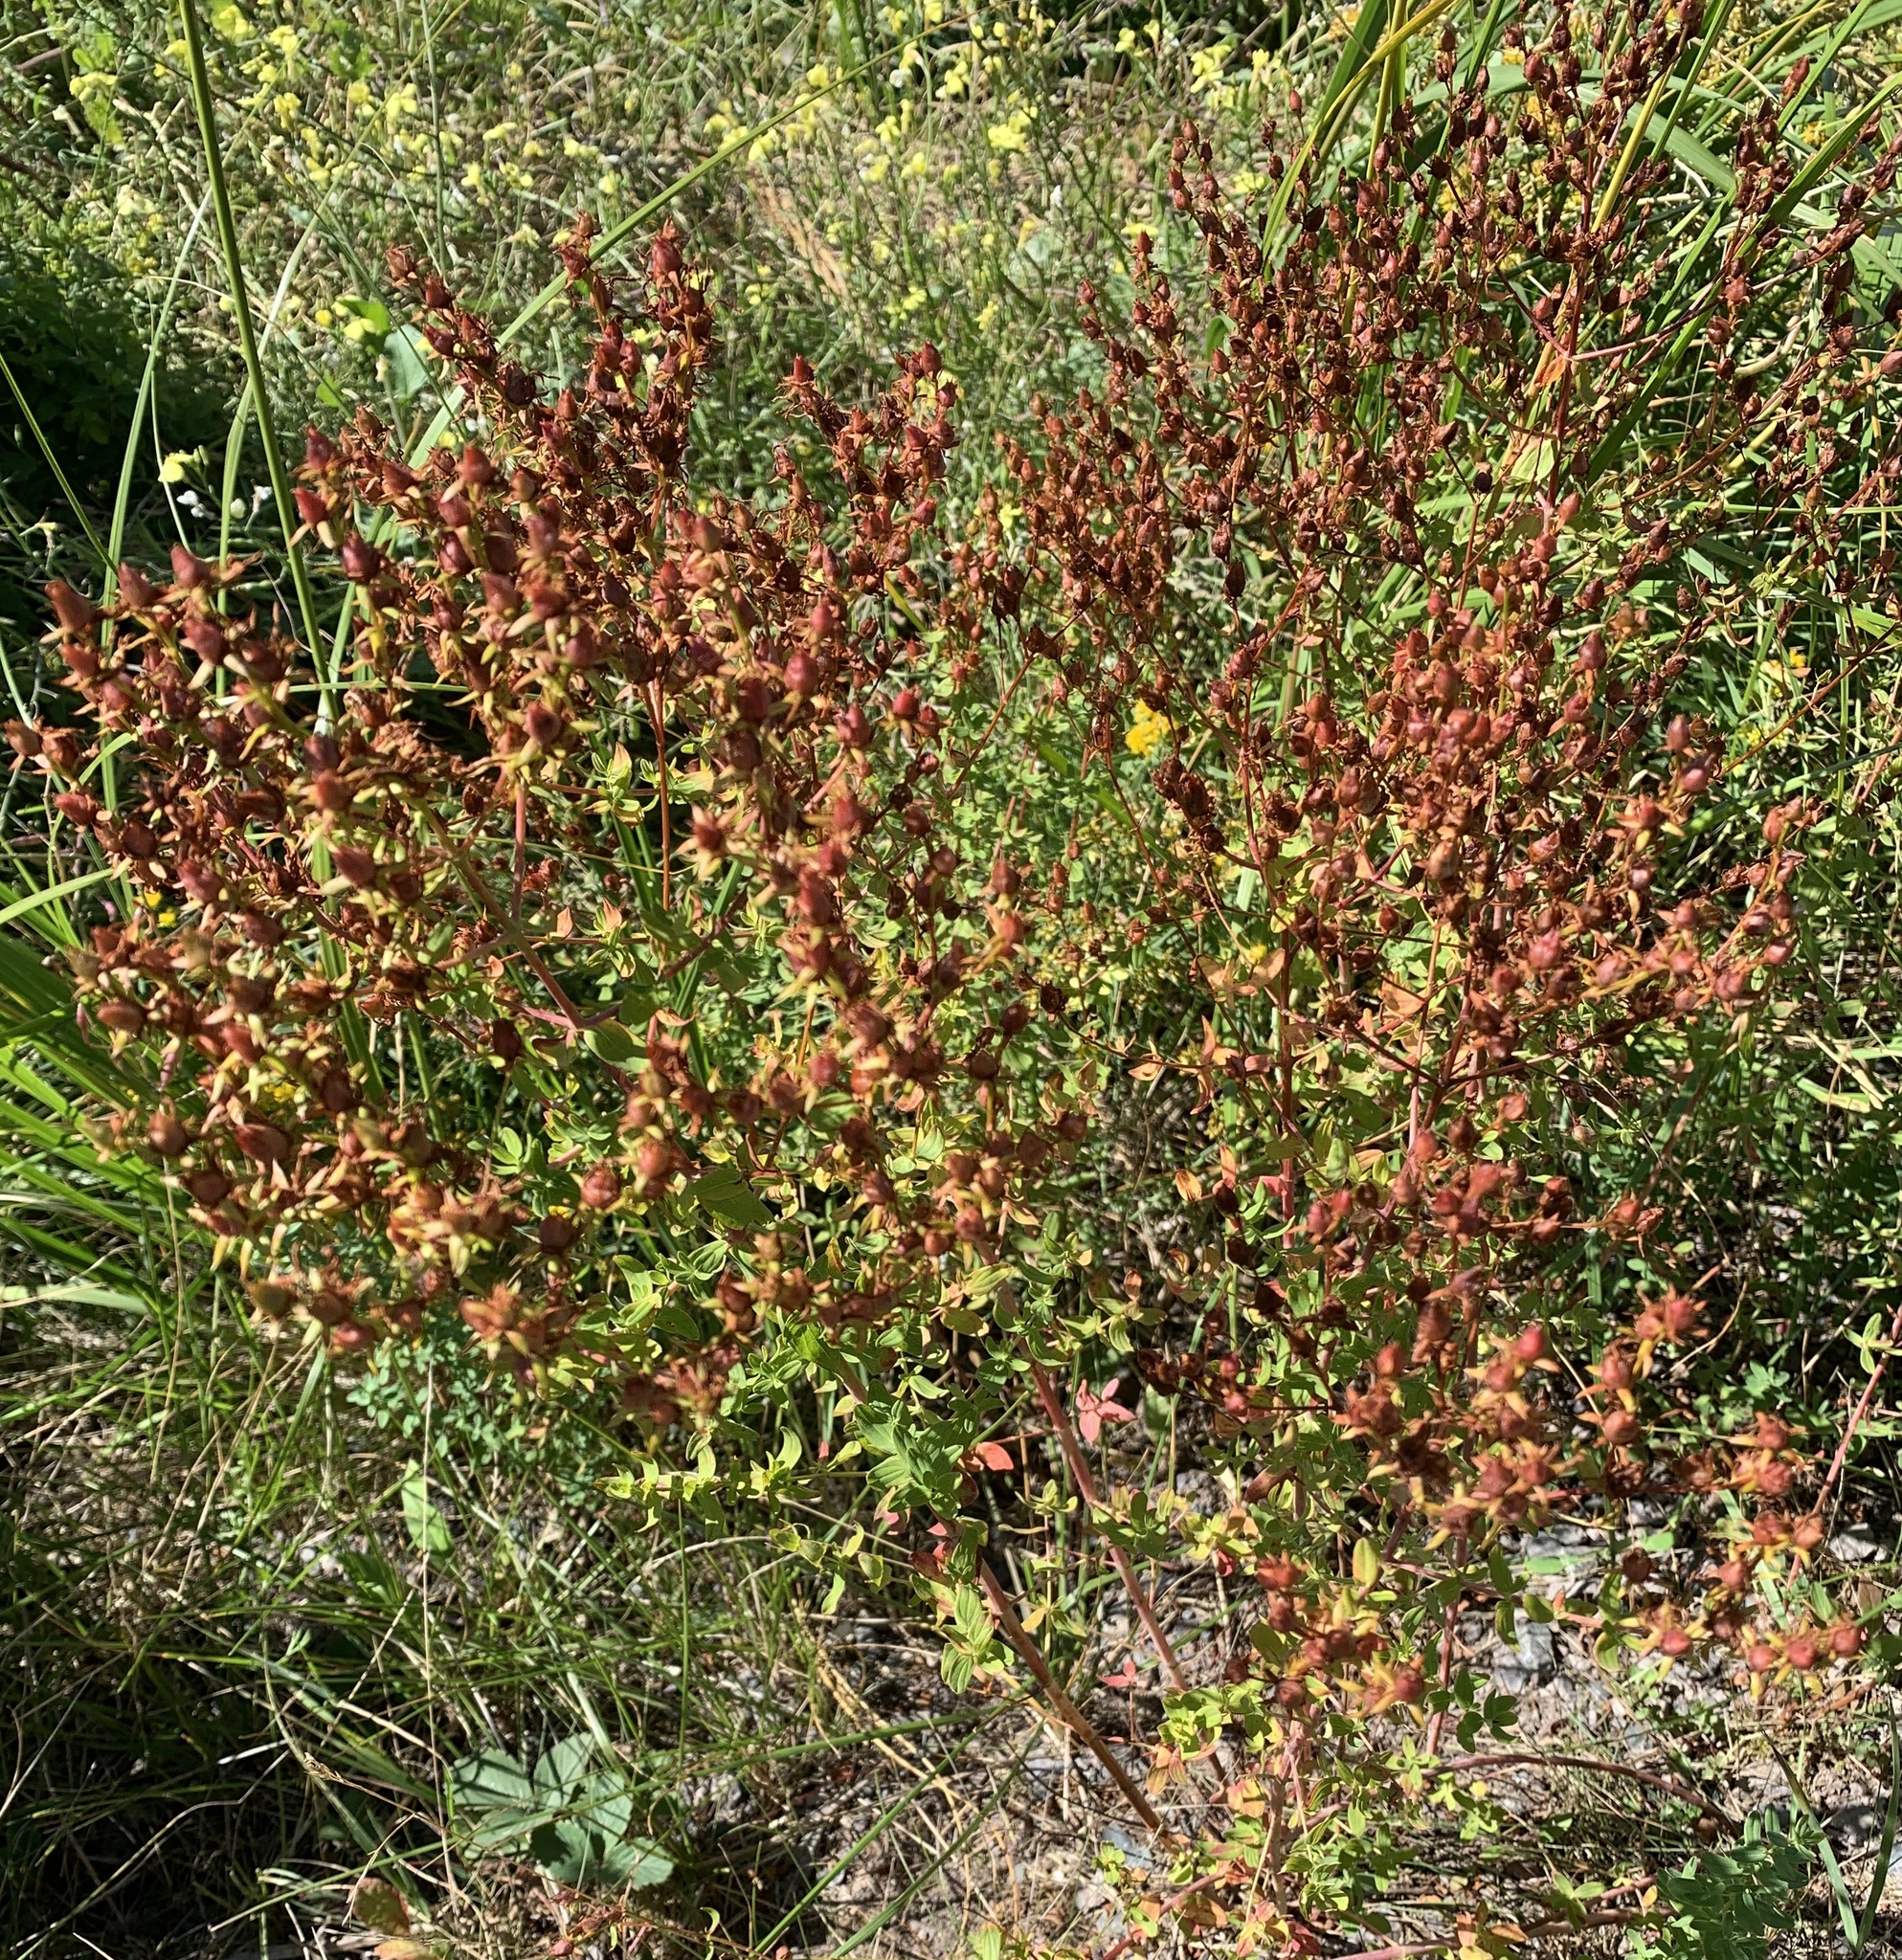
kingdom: Plantae
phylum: Tracheophyta
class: Magnoliopsida
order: Malpighiales
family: Hypericaceae
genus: Hypericum
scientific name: Hypericum perforatum
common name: Common st. johnswort
